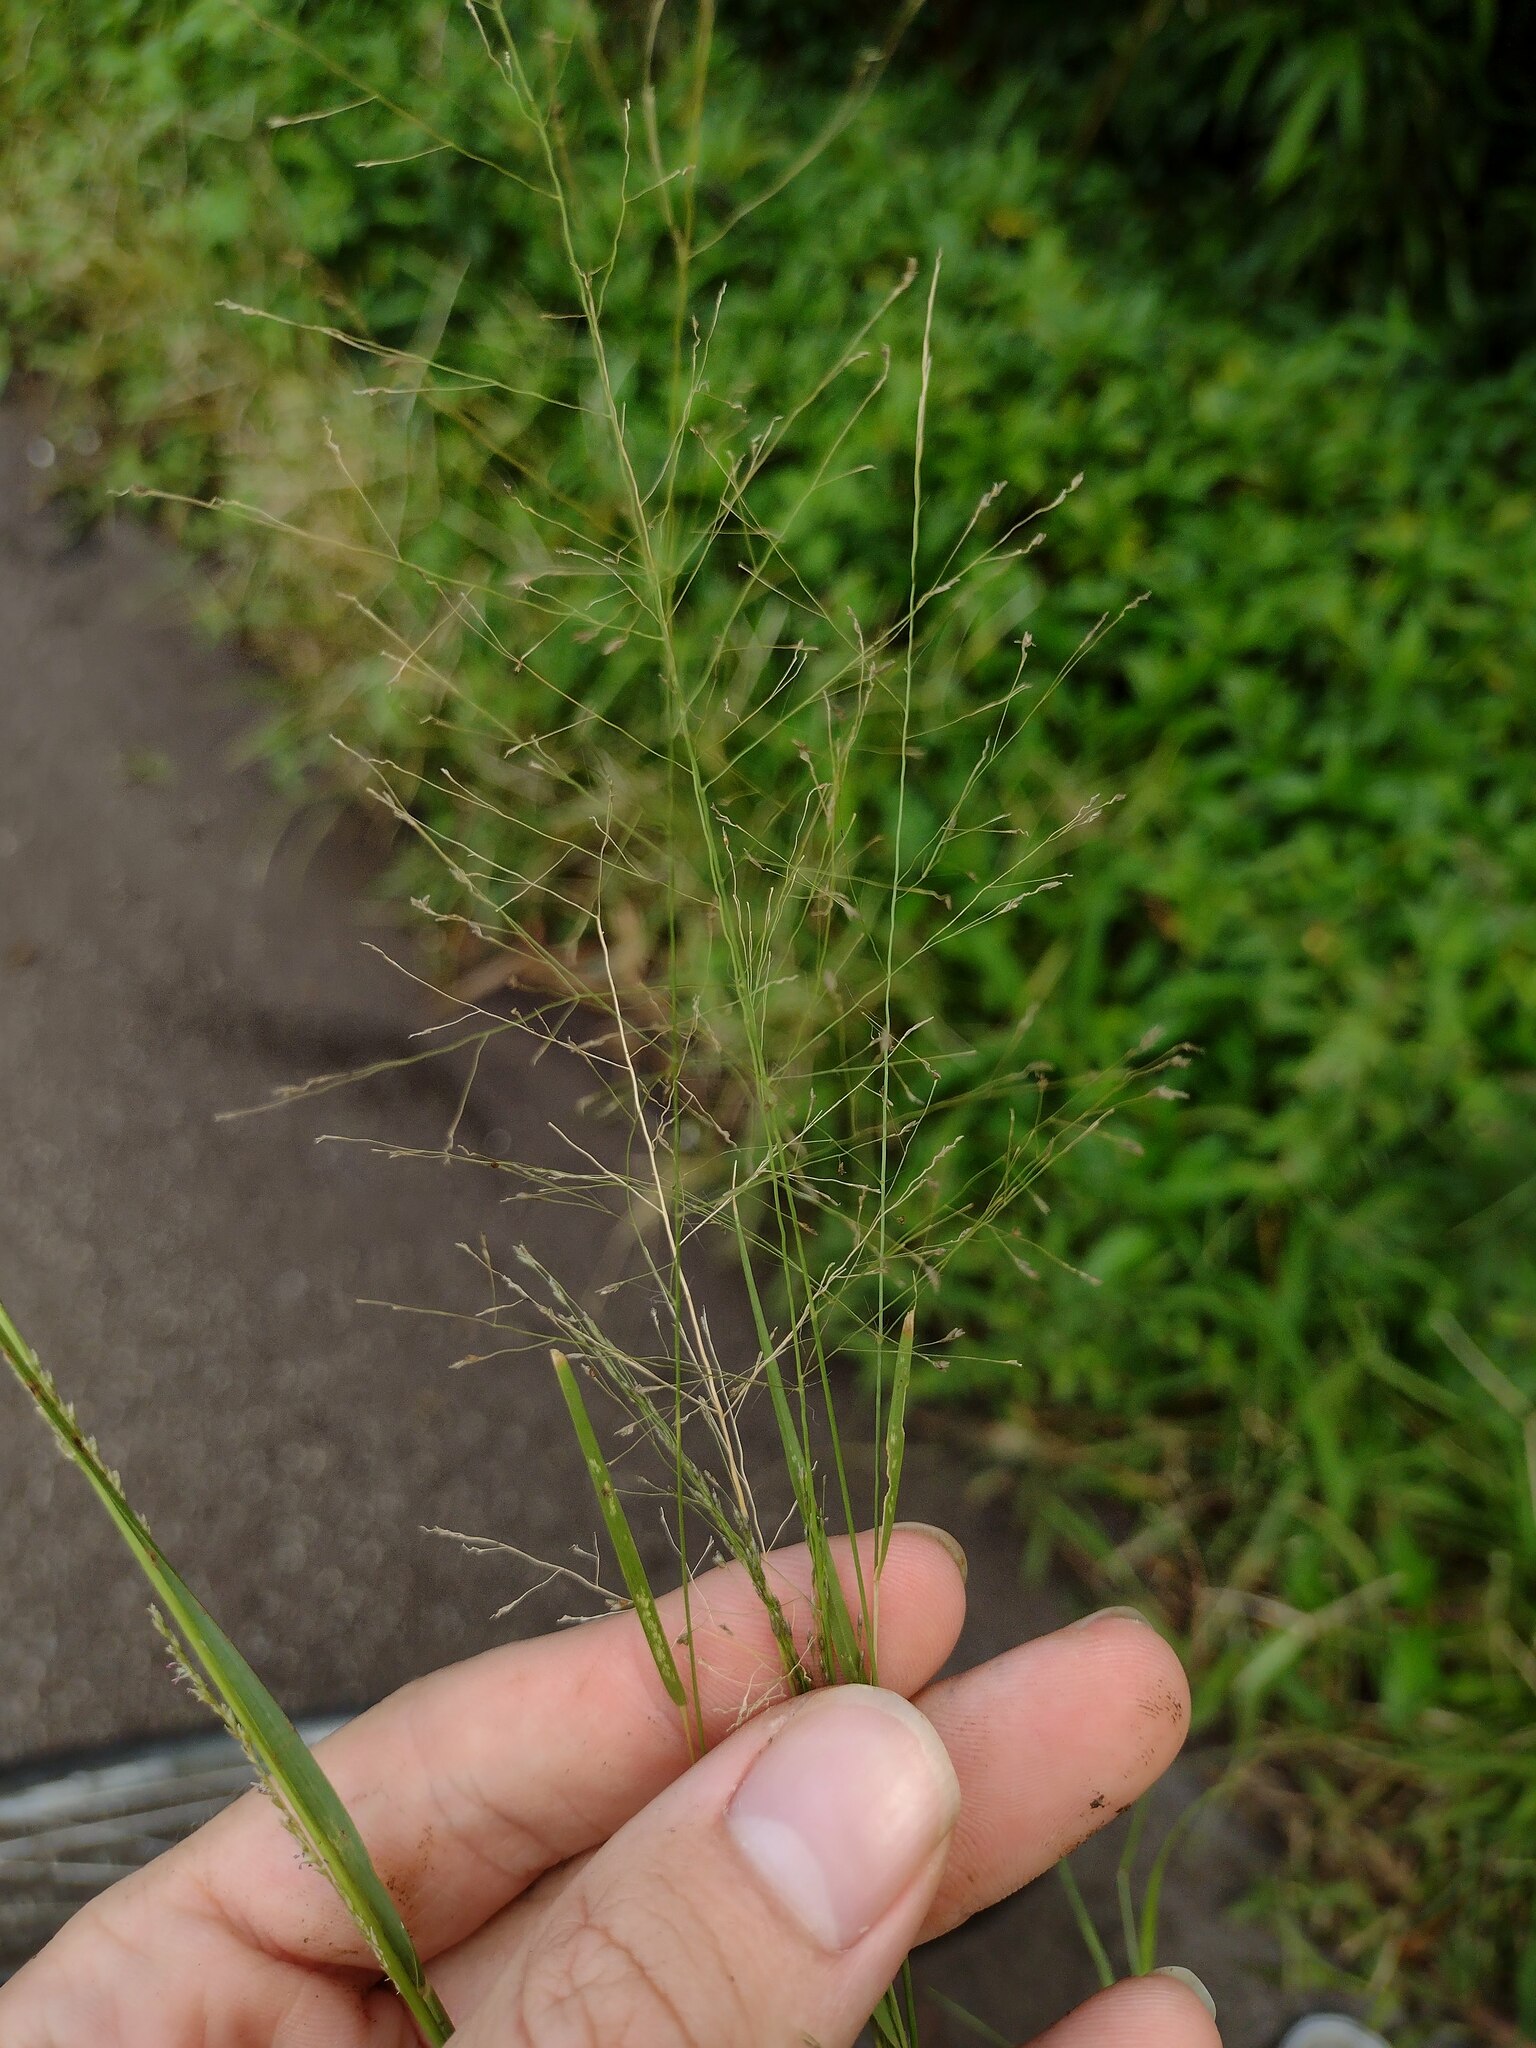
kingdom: Plantae
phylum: Tracheophyta
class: Liliopsida
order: Poales
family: Poaceae
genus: Eragrostis
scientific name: Eragrostis pilosa
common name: Indian lovegrass
